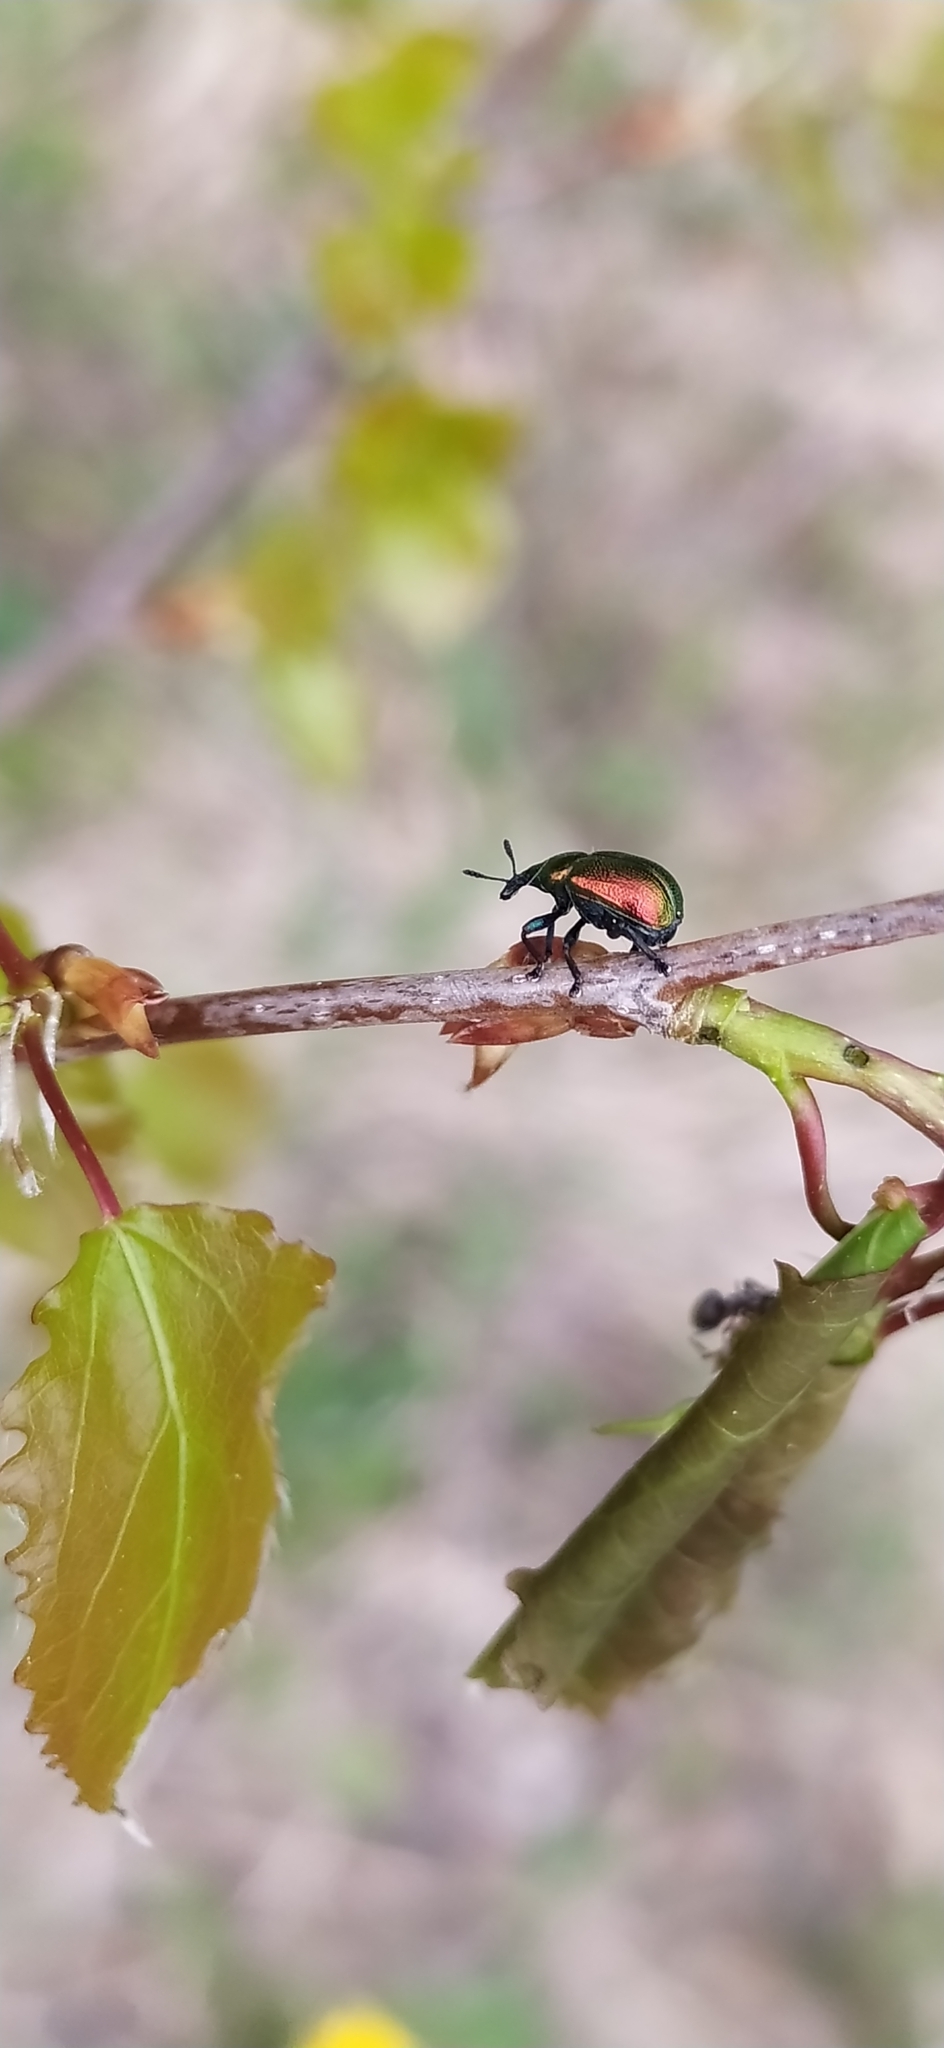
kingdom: Animalia
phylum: Arthropoda
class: Insecta
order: Coleoptera
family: Attelabidae
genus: Byctiscus
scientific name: Byctiscus populi
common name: Leaf-rolling weevil
